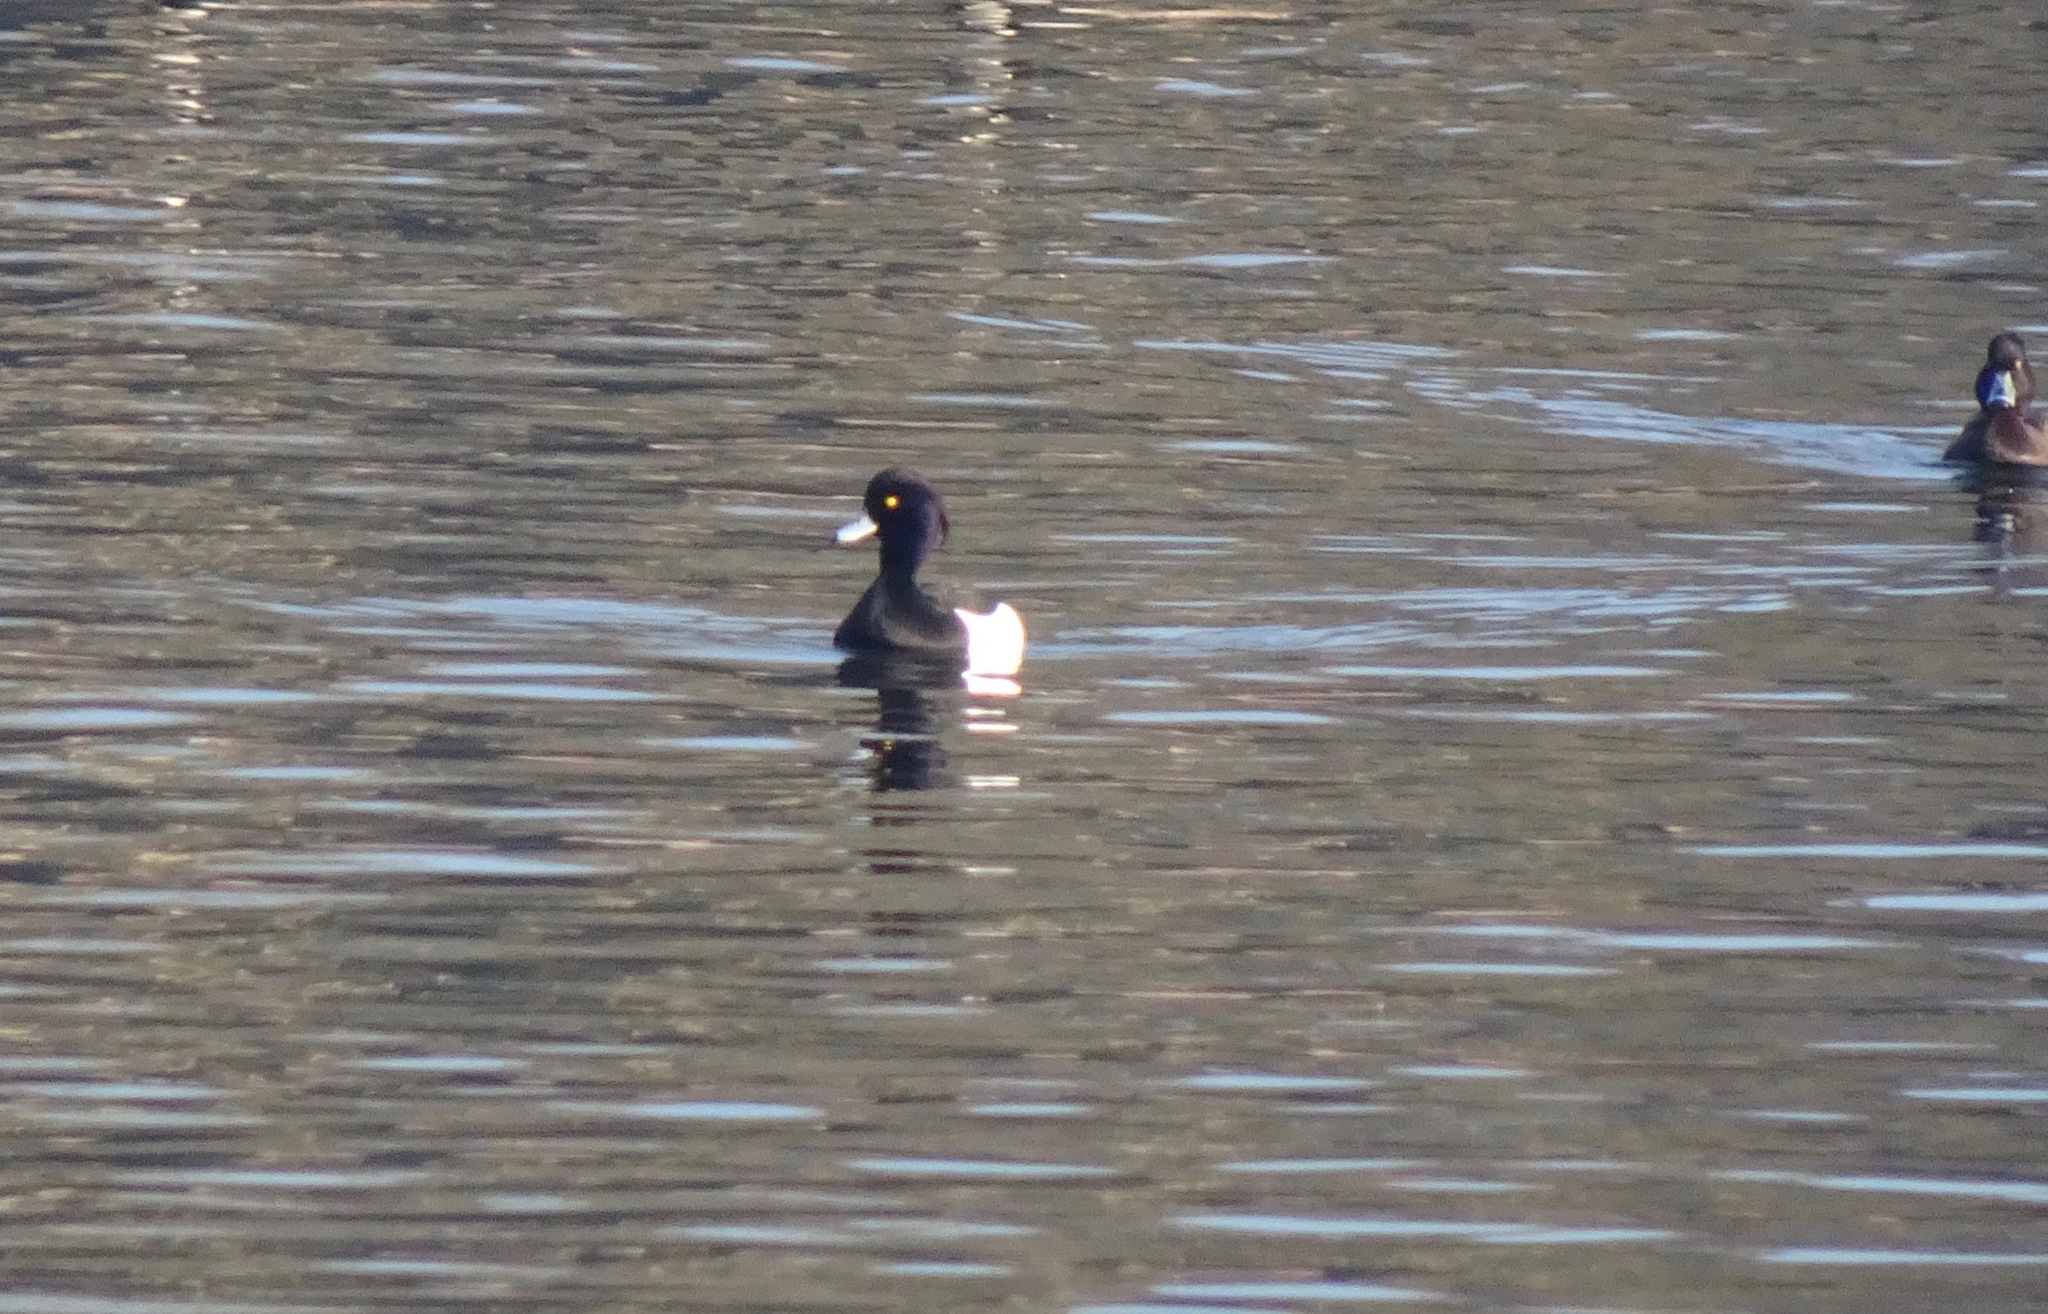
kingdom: Animalia
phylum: Chordata
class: Aves
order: Anseriformes
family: Anatidae
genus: Aythya
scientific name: Aythya fuligula
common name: Tufted duck
